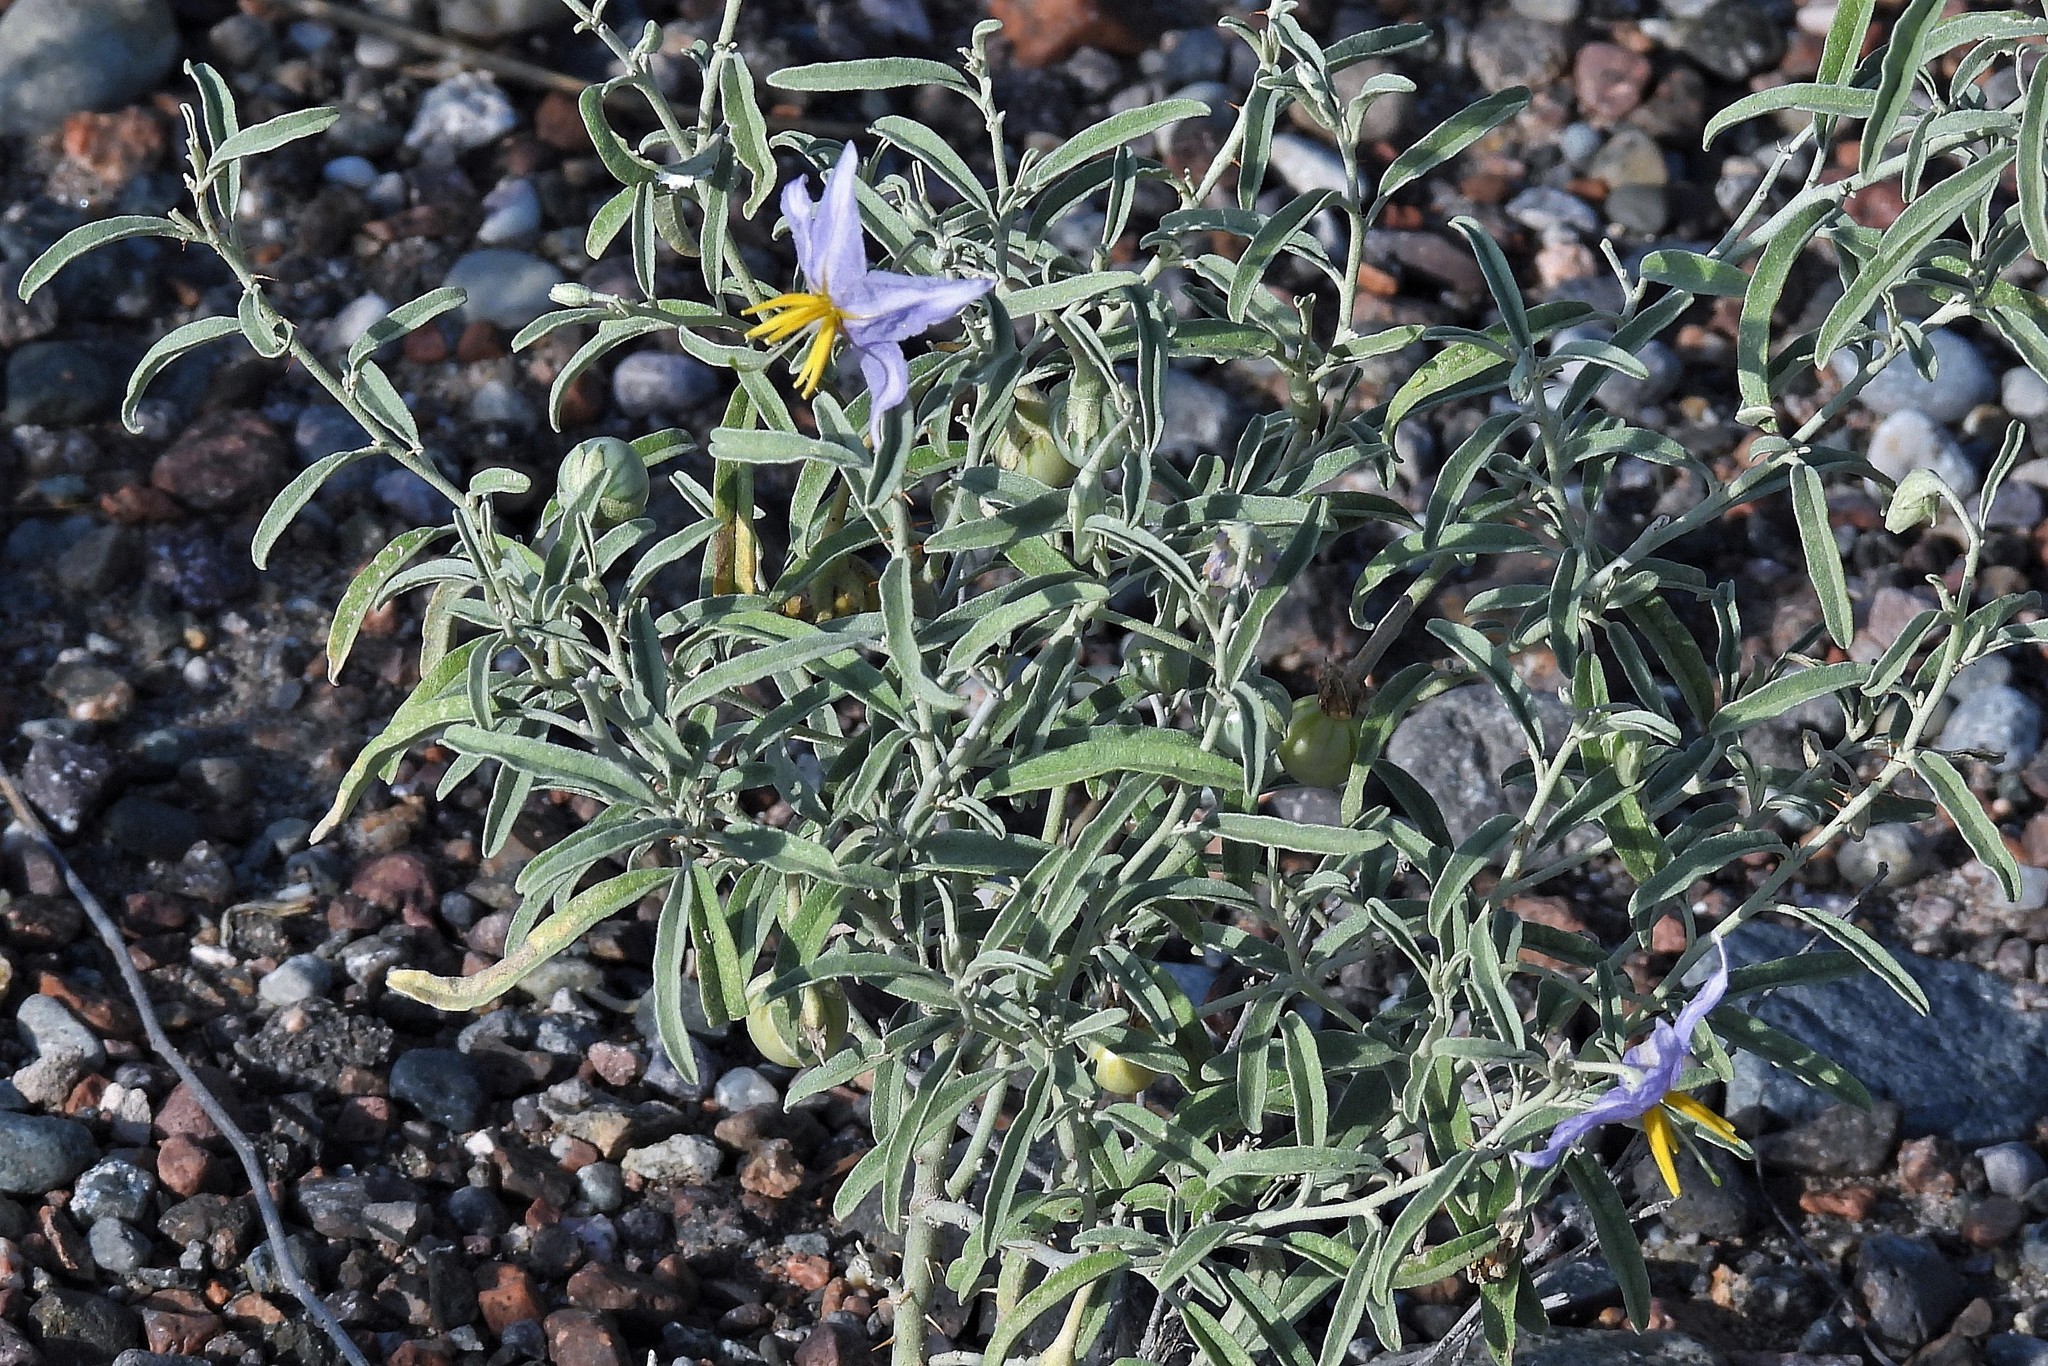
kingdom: Plantae
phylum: Tracheophyta
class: Magnoliopsida
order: Solanales
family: Solanaceae
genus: Solanum
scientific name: Solanum elaeagnifolium
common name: Silverleaf nightshade
